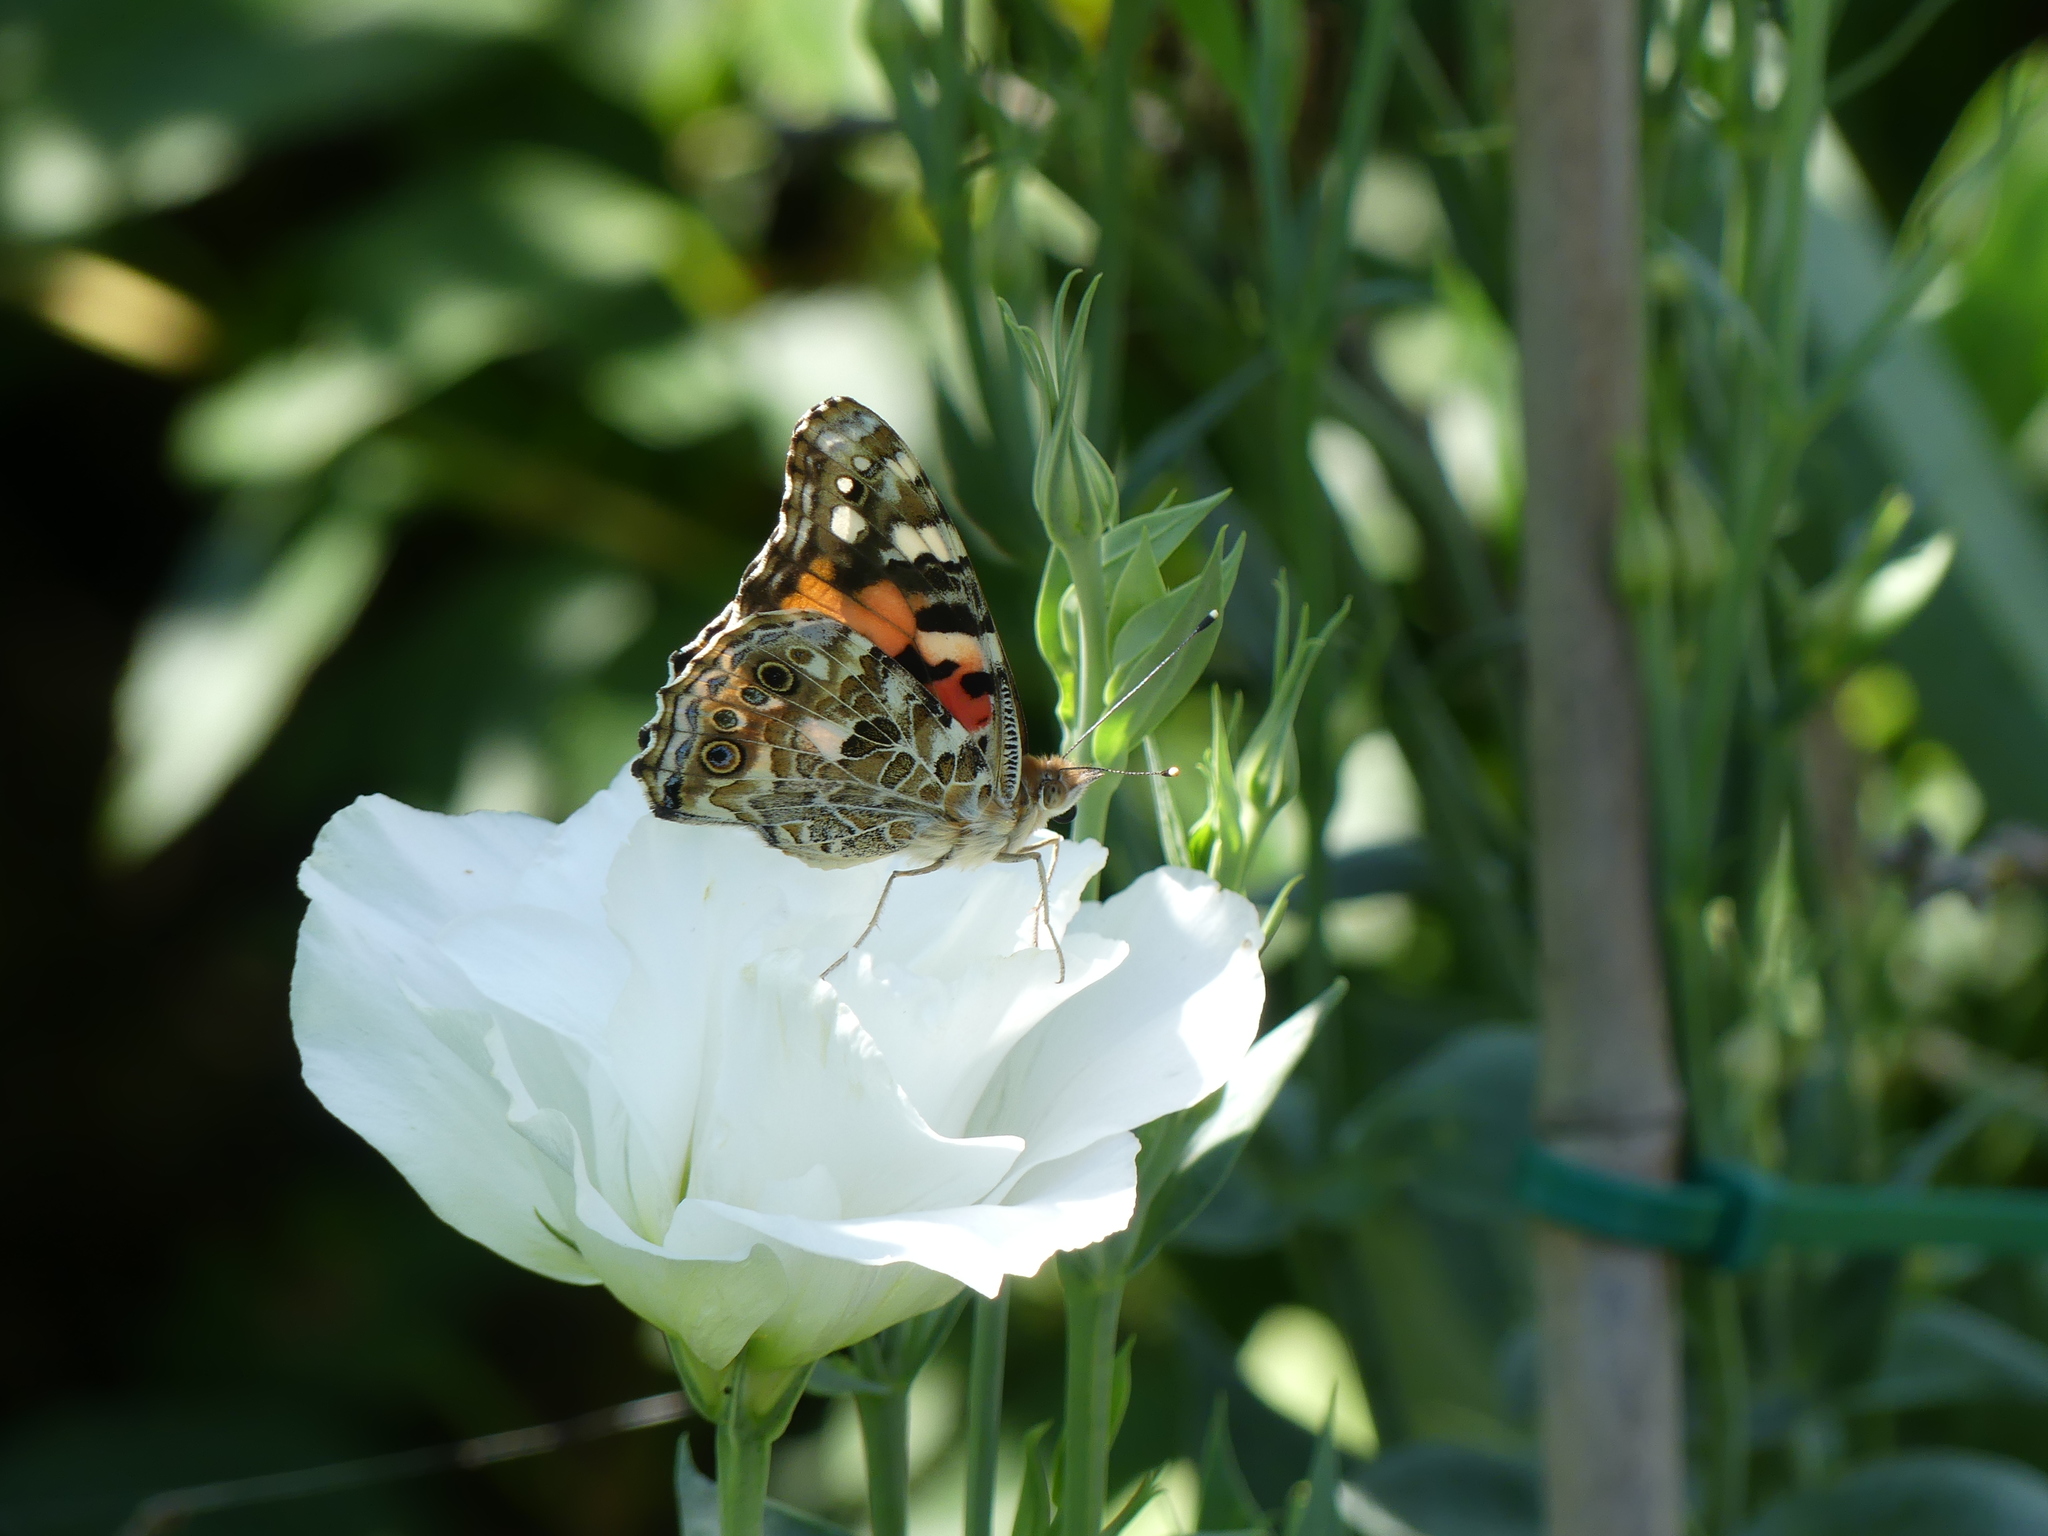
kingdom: Animalia
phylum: Arthropoda
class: Insecta
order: Lepidoptera
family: Nymphalidae
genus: Vanessa
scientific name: Vanessa cardui
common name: Painted lady
